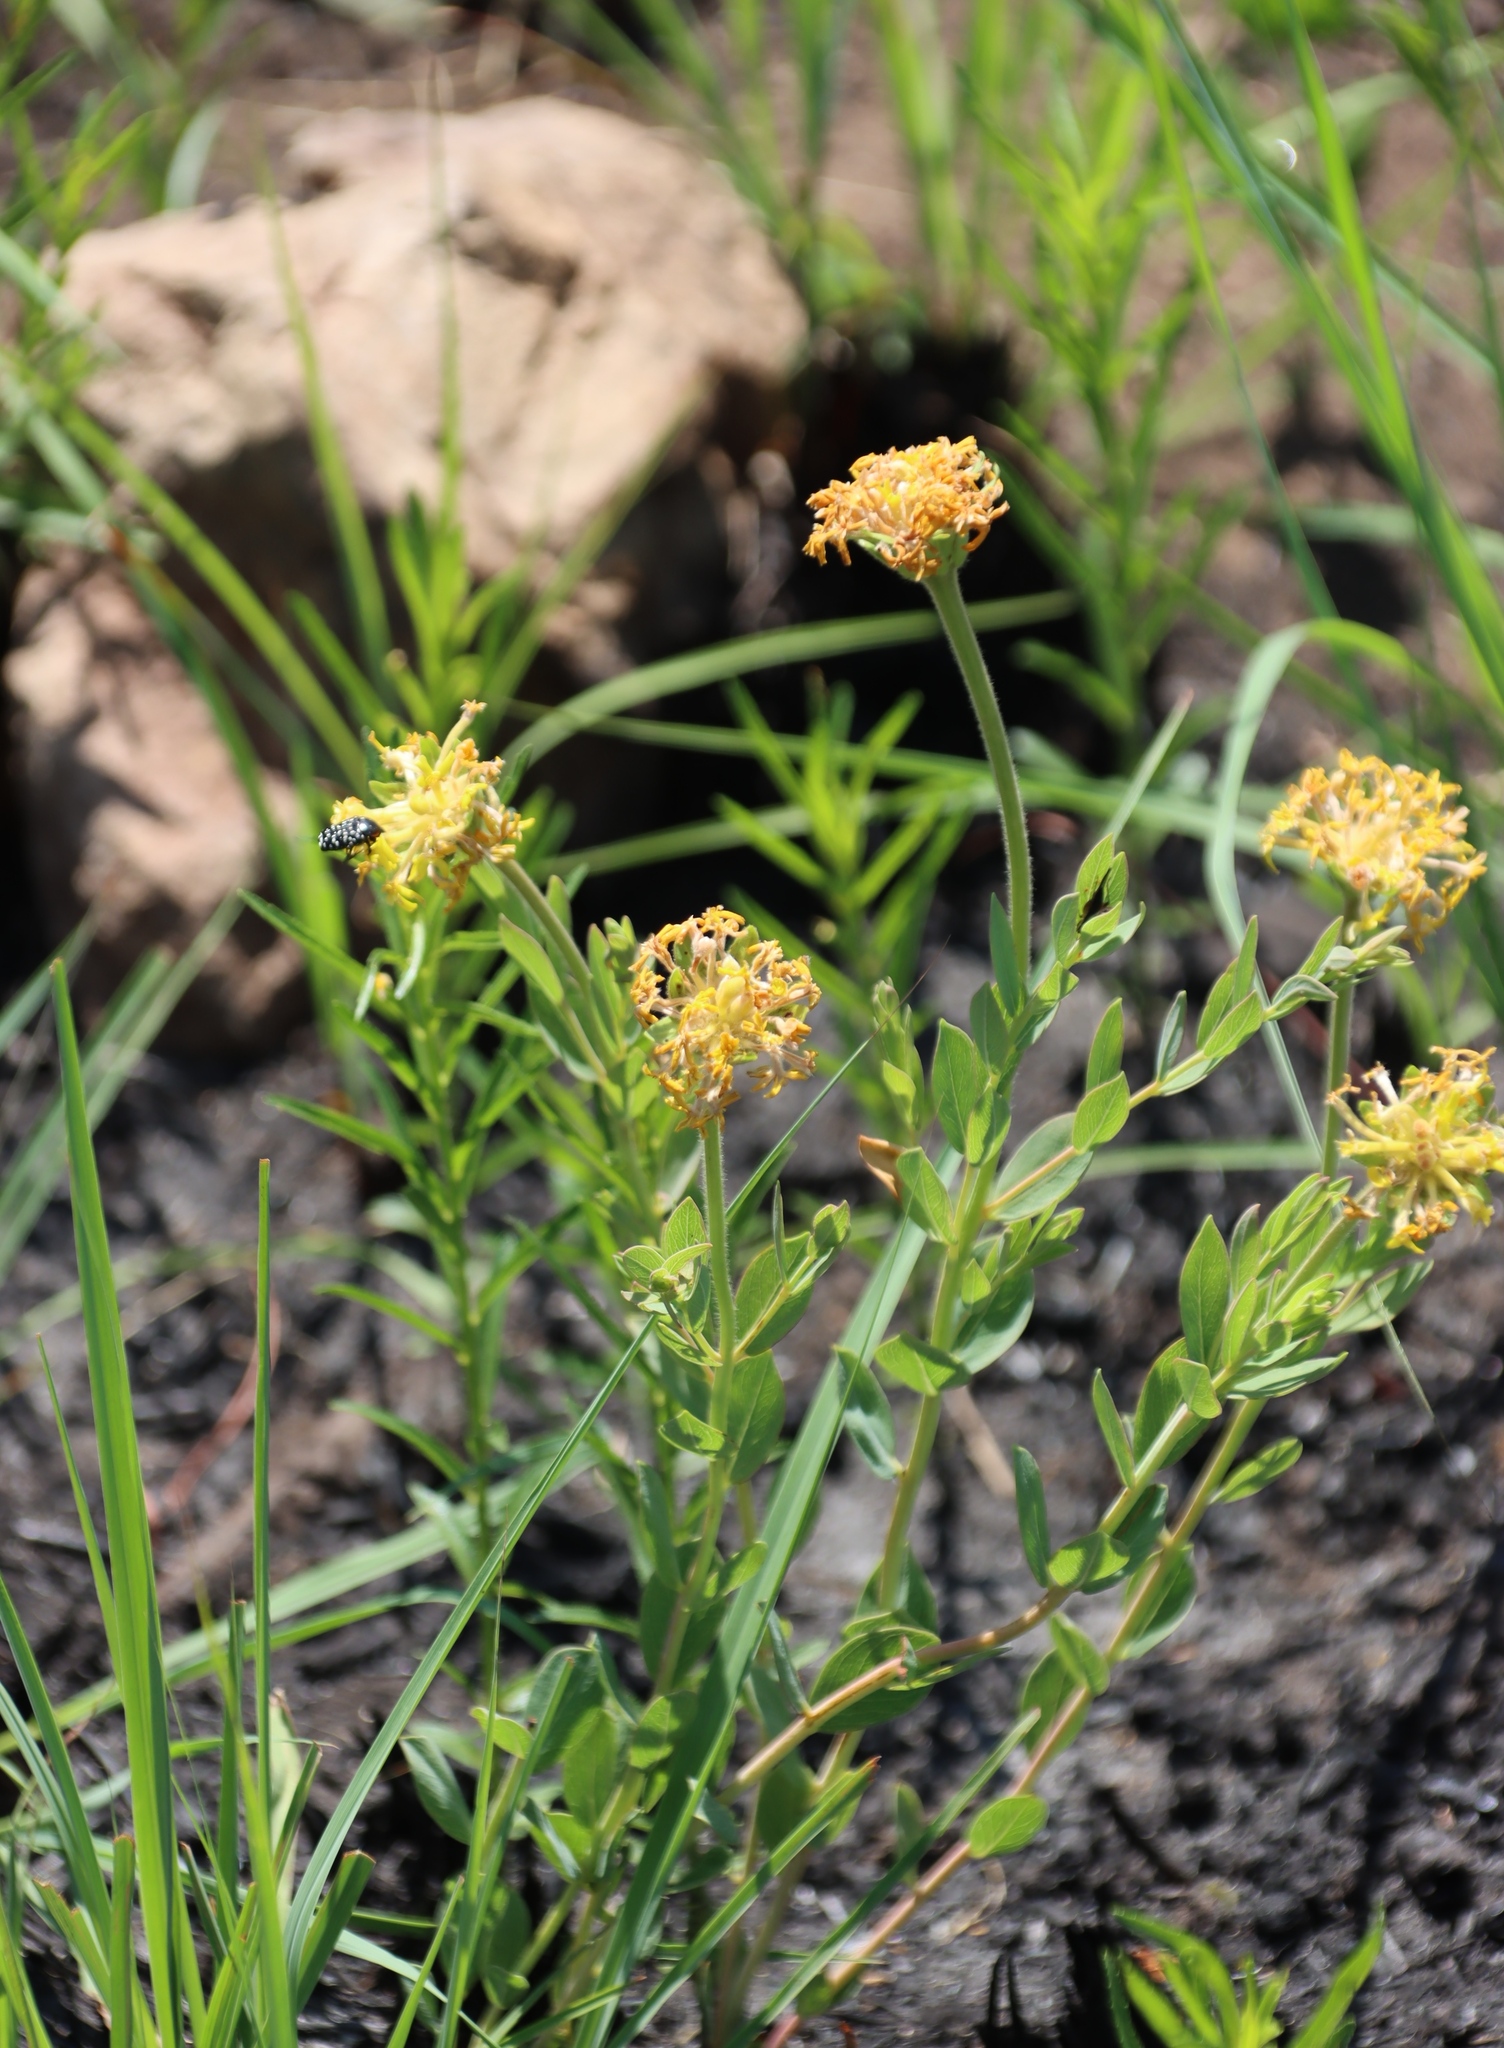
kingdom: Plantae
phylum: Tracheophyta
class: Magnoliopsida
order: Malvales
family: Thymelaeaceae
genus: Gnidia
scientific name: Gnidia kraussiana
